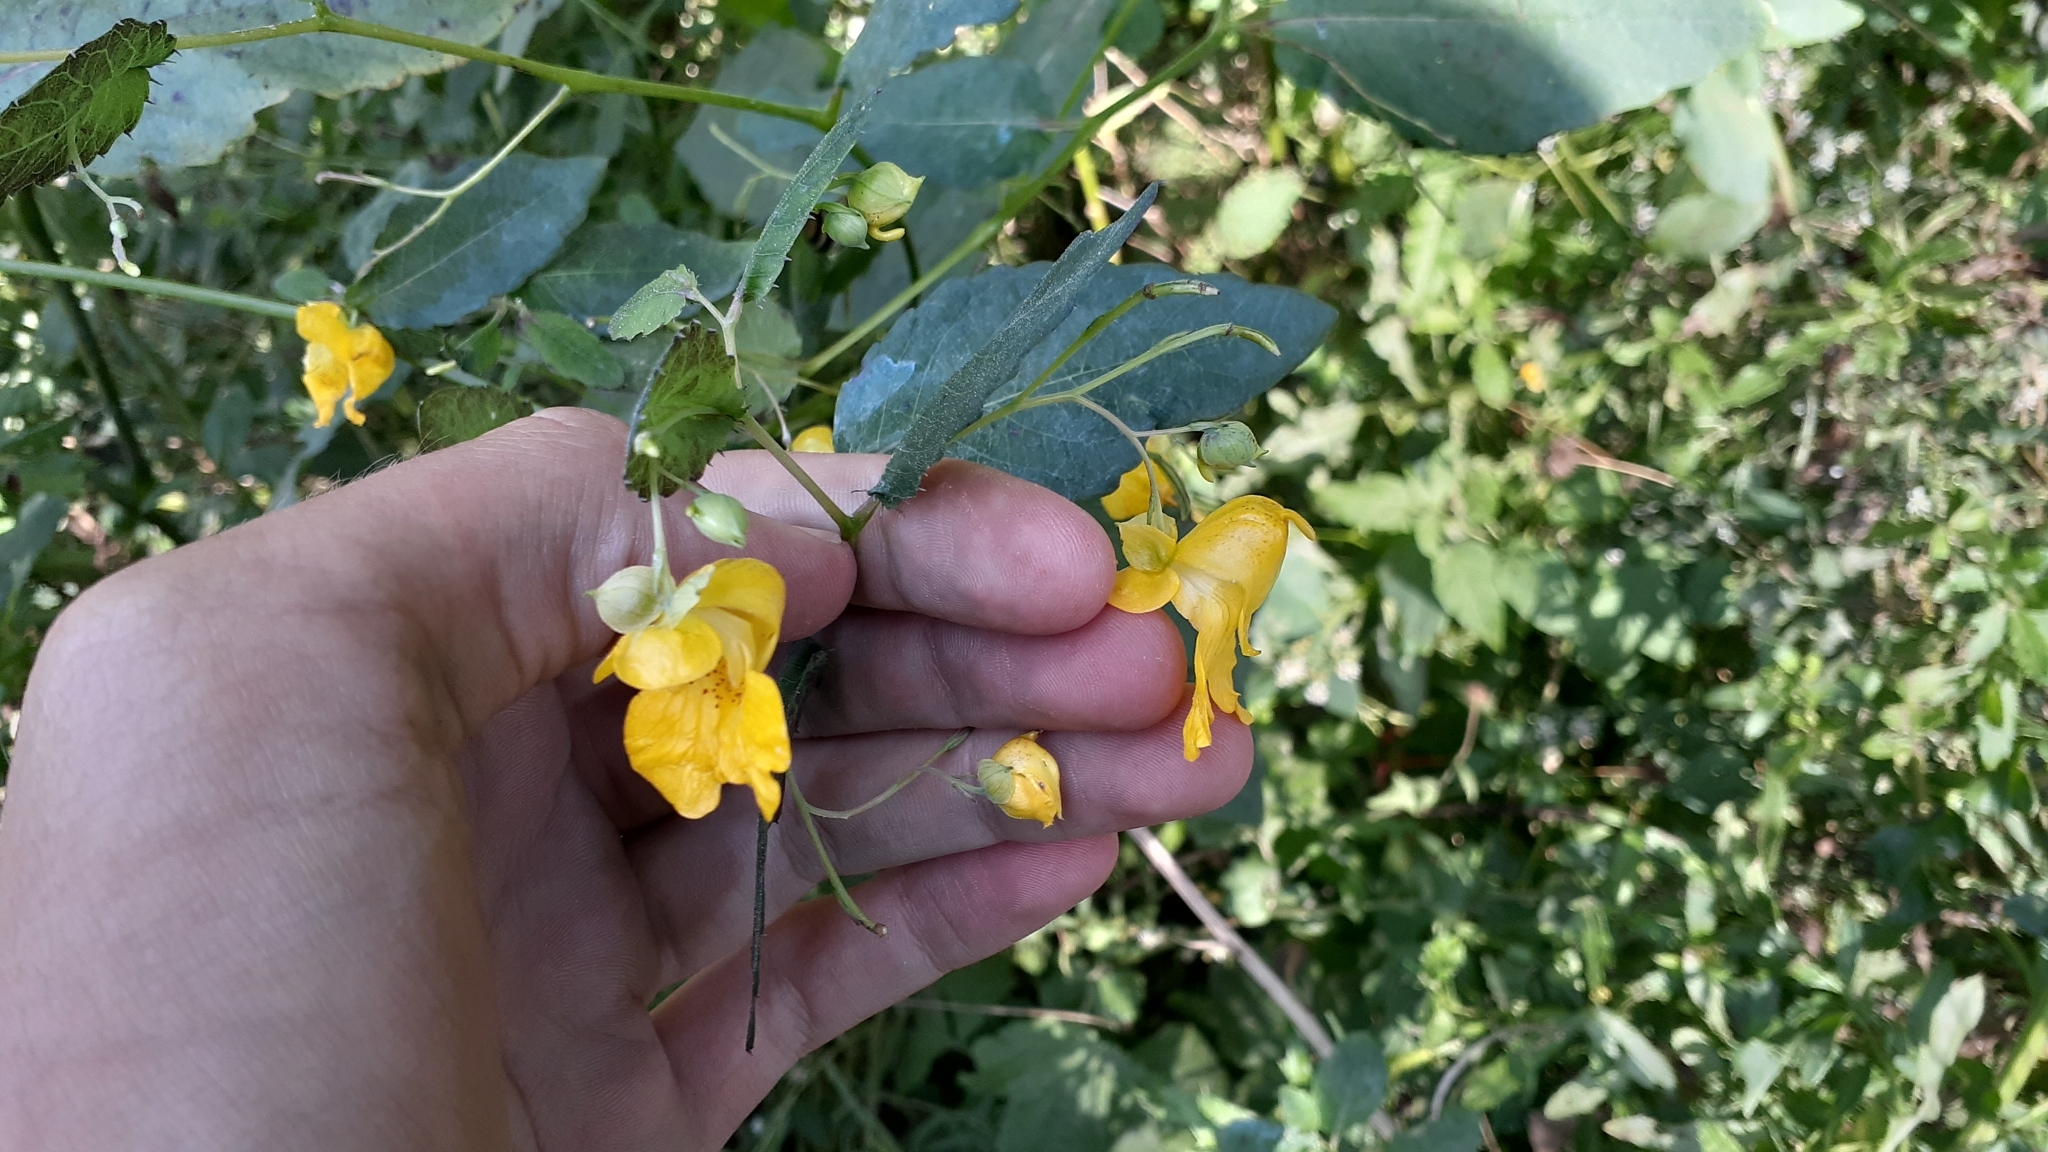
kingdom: Plantae
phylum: Tracheophyta
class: Magnoliopsida
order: Ericales
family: Balsaminaceae
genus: Impatiens
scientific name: Impatiens pallida
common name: Pale snapweed
